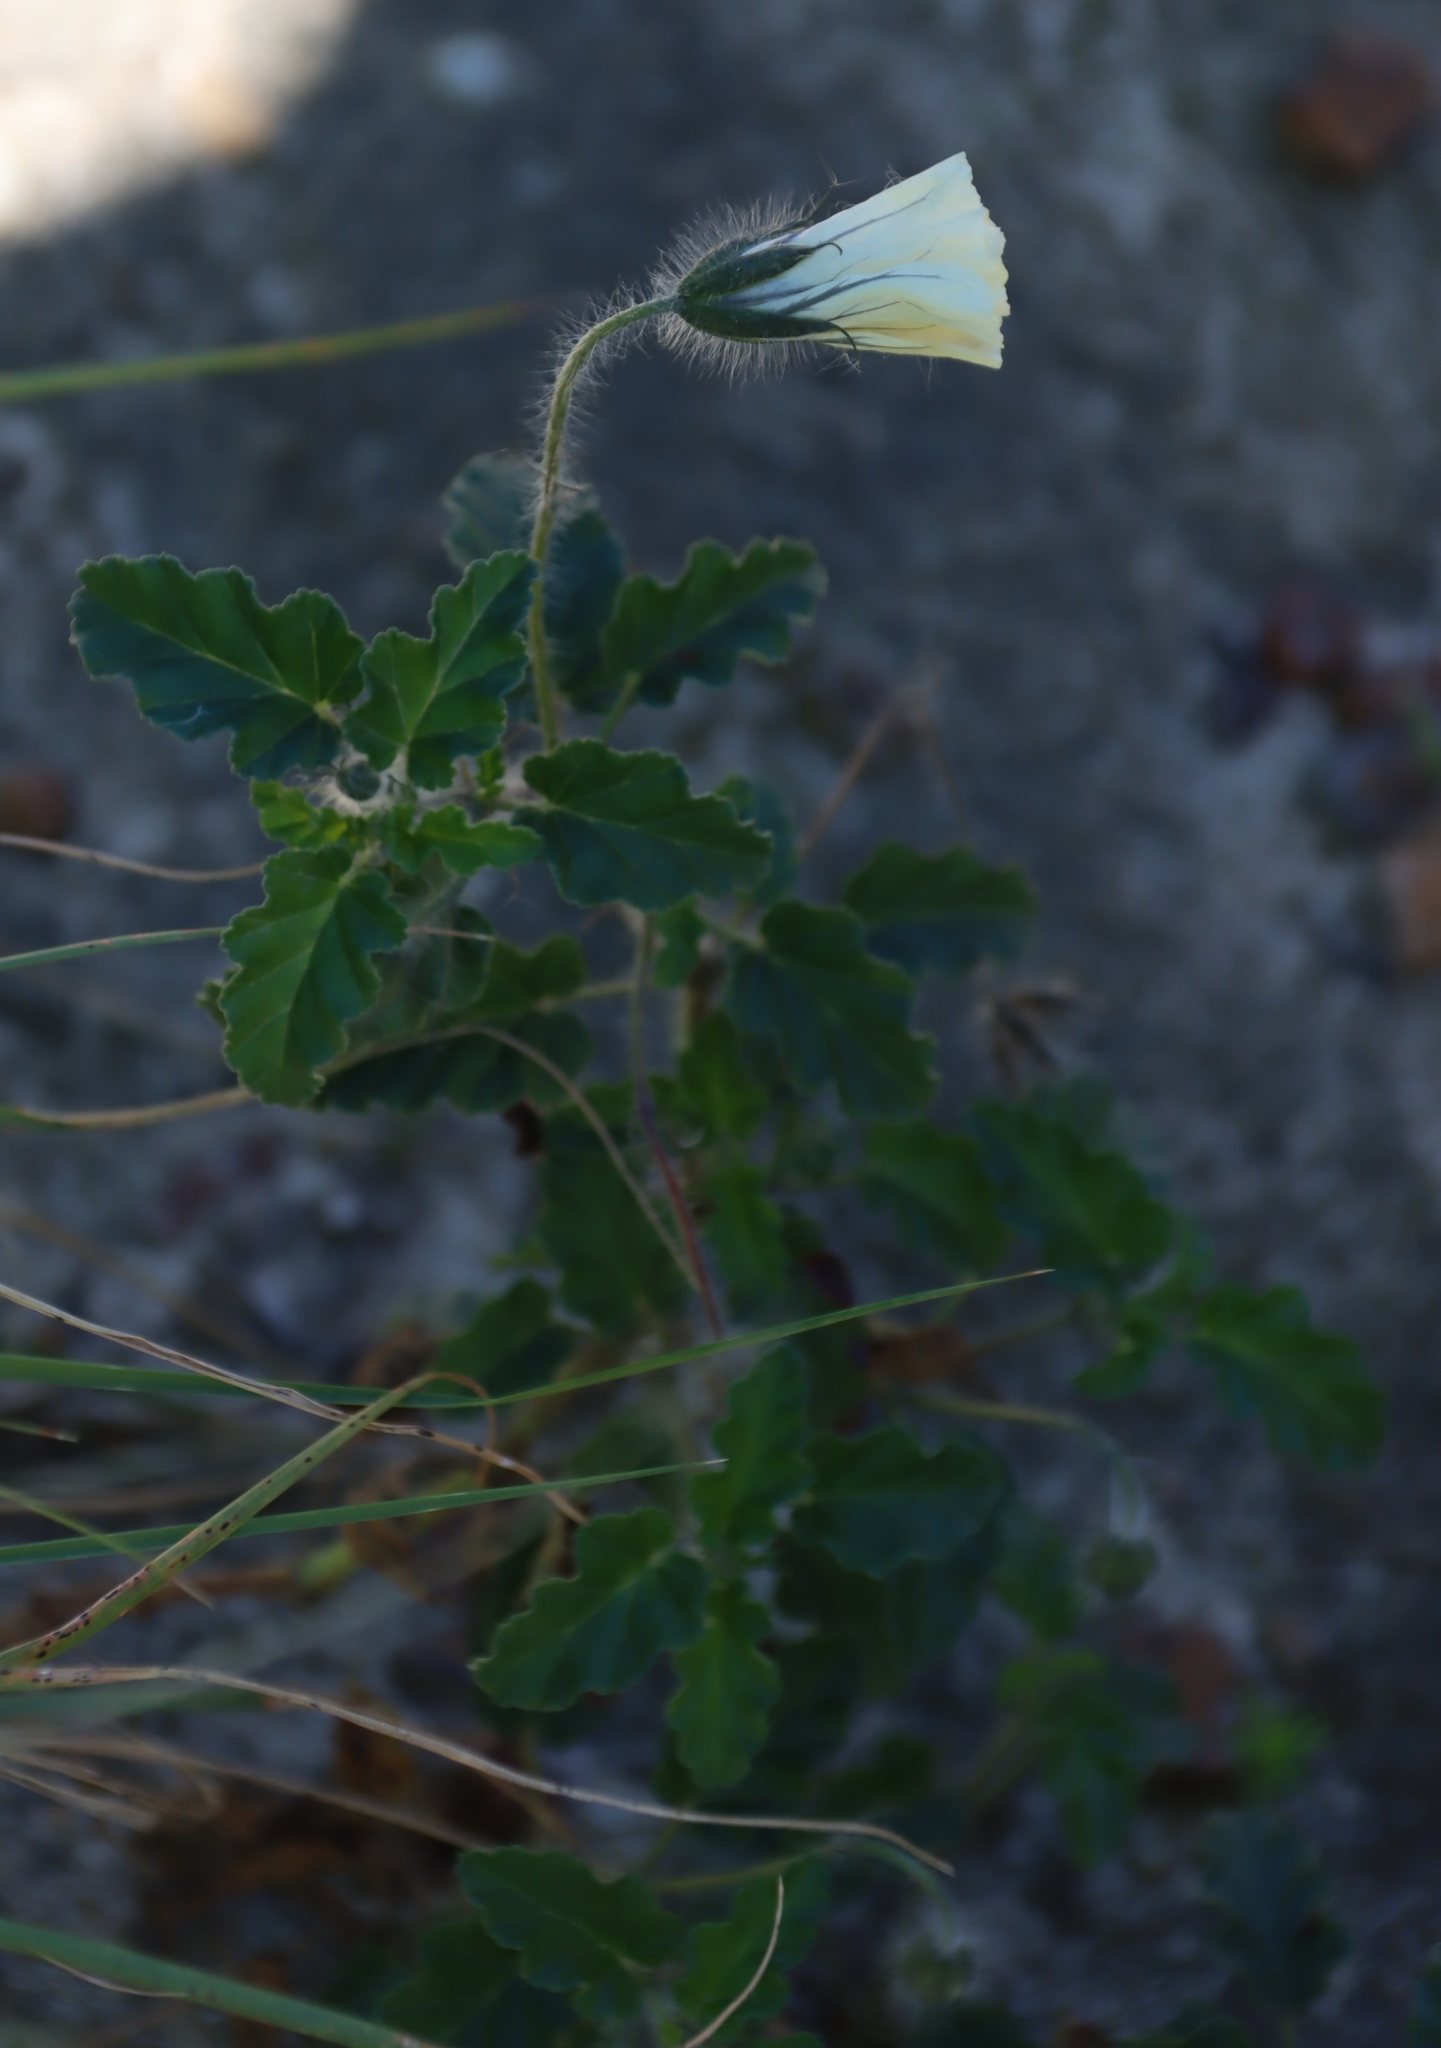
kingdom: Plantae
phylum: Tracheophyta
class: Magnoliopsida
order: Geraniales
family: Geraniaceae
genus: Monsonia
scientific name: Monsonia emarginata
